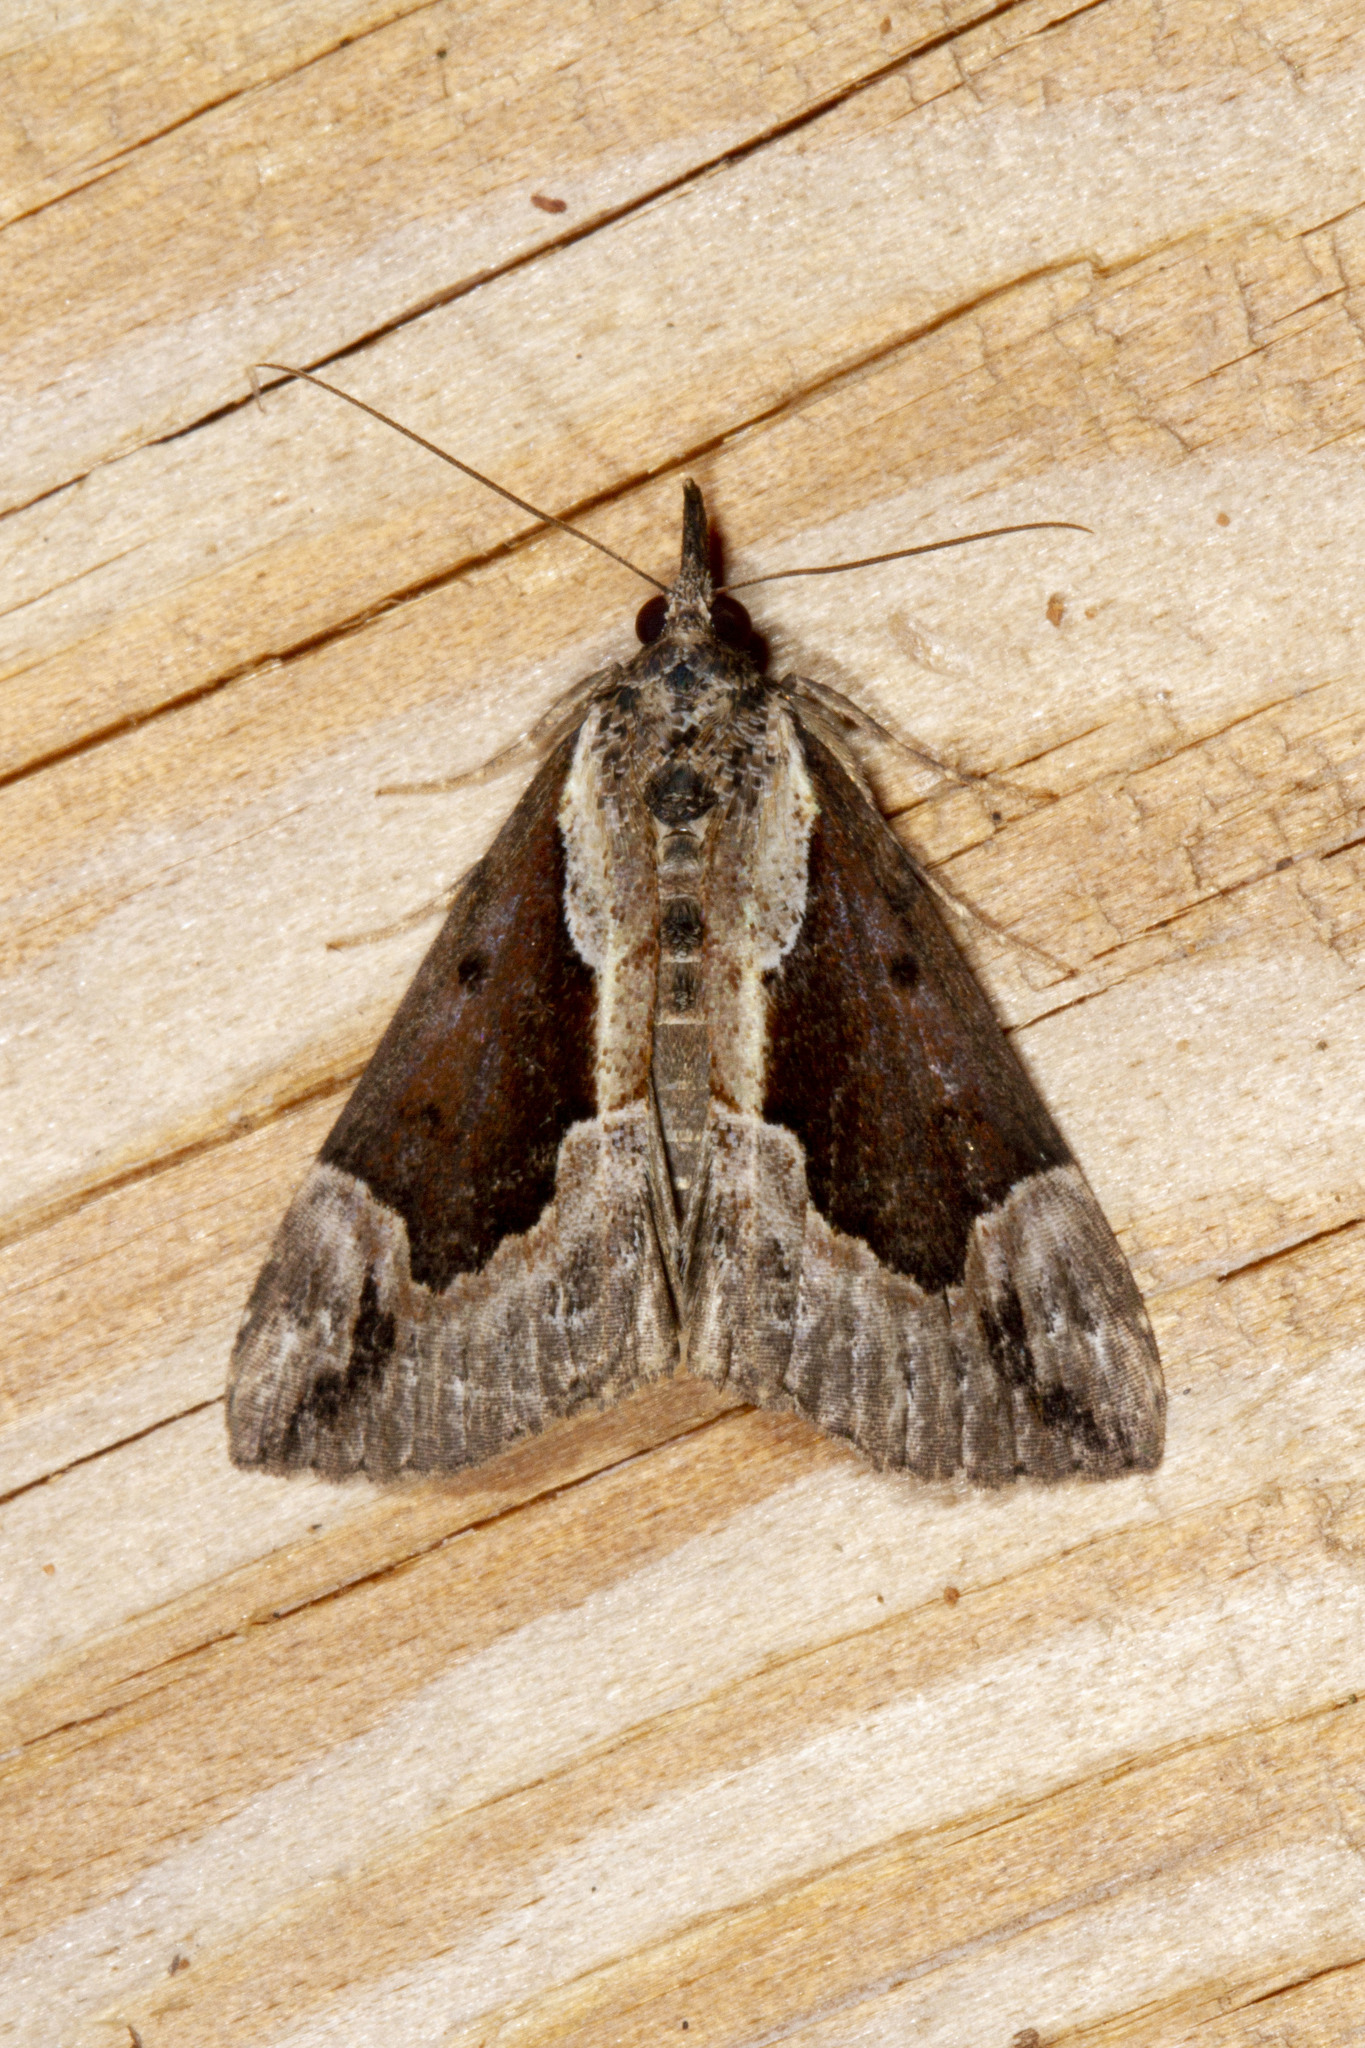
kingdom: Animalia
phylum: Arthropoda
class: Insecta
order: Lepidoptera
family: Erebidae
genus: Hypena
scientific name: Hypena baltimoralis
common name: Baltimore snout
